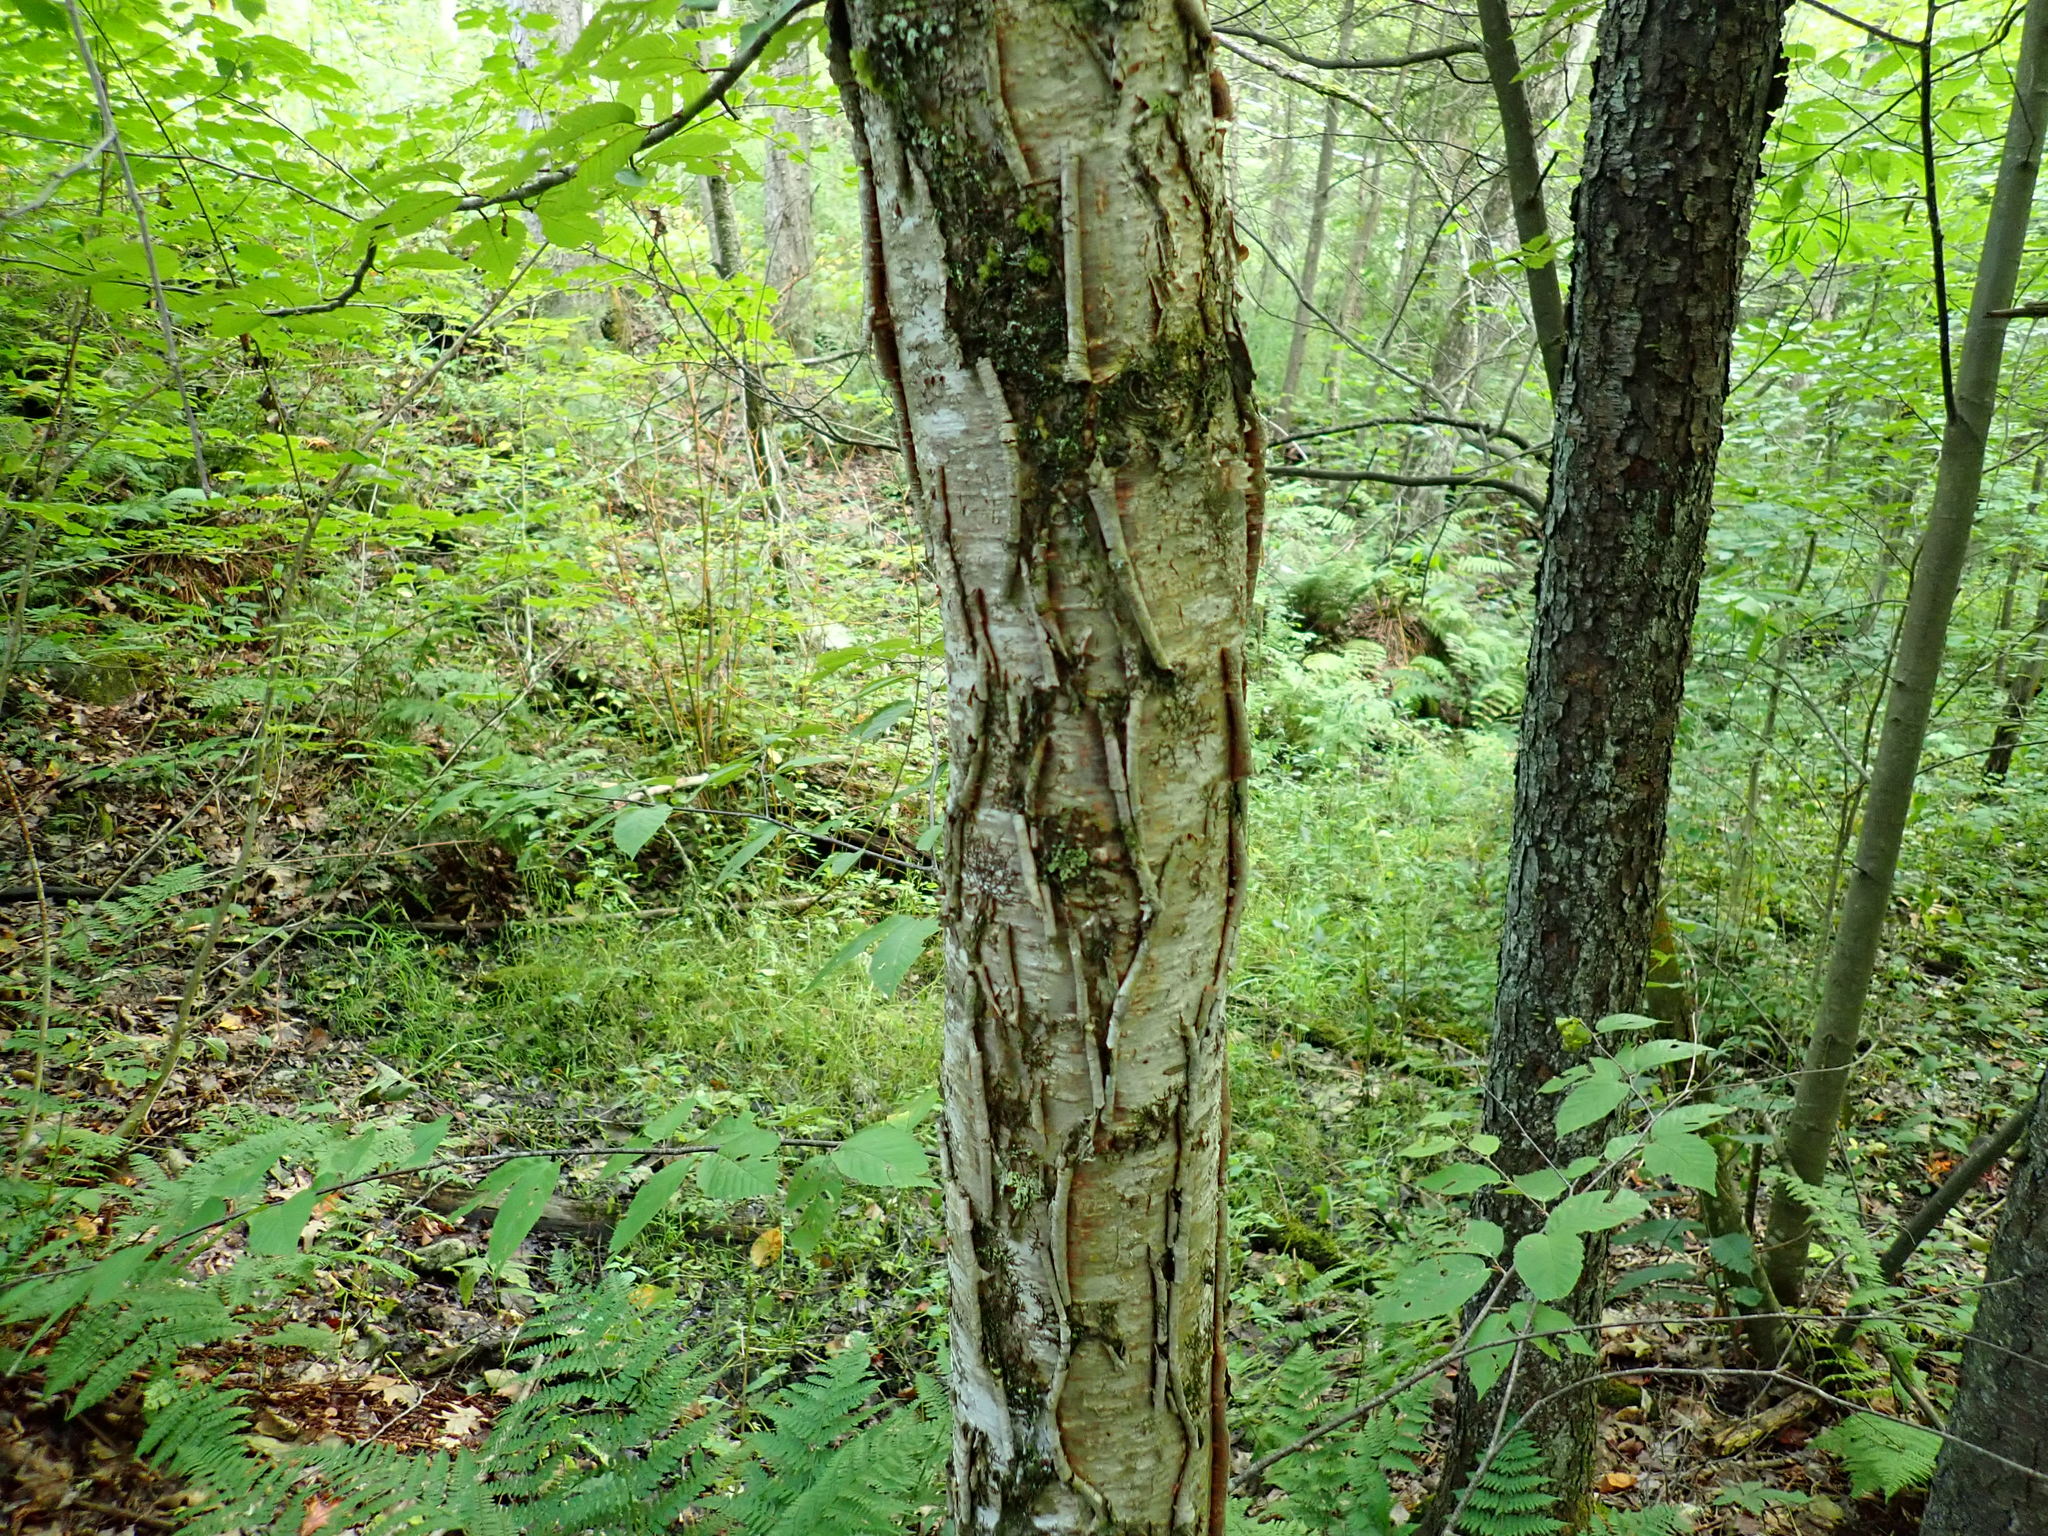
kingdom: Plantae
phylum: Tracheophyta
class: Magnoliopsida
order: Fagales
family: Betulaceae
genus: Betula
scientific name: Betula alleghaniensis
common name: Yellow birch
